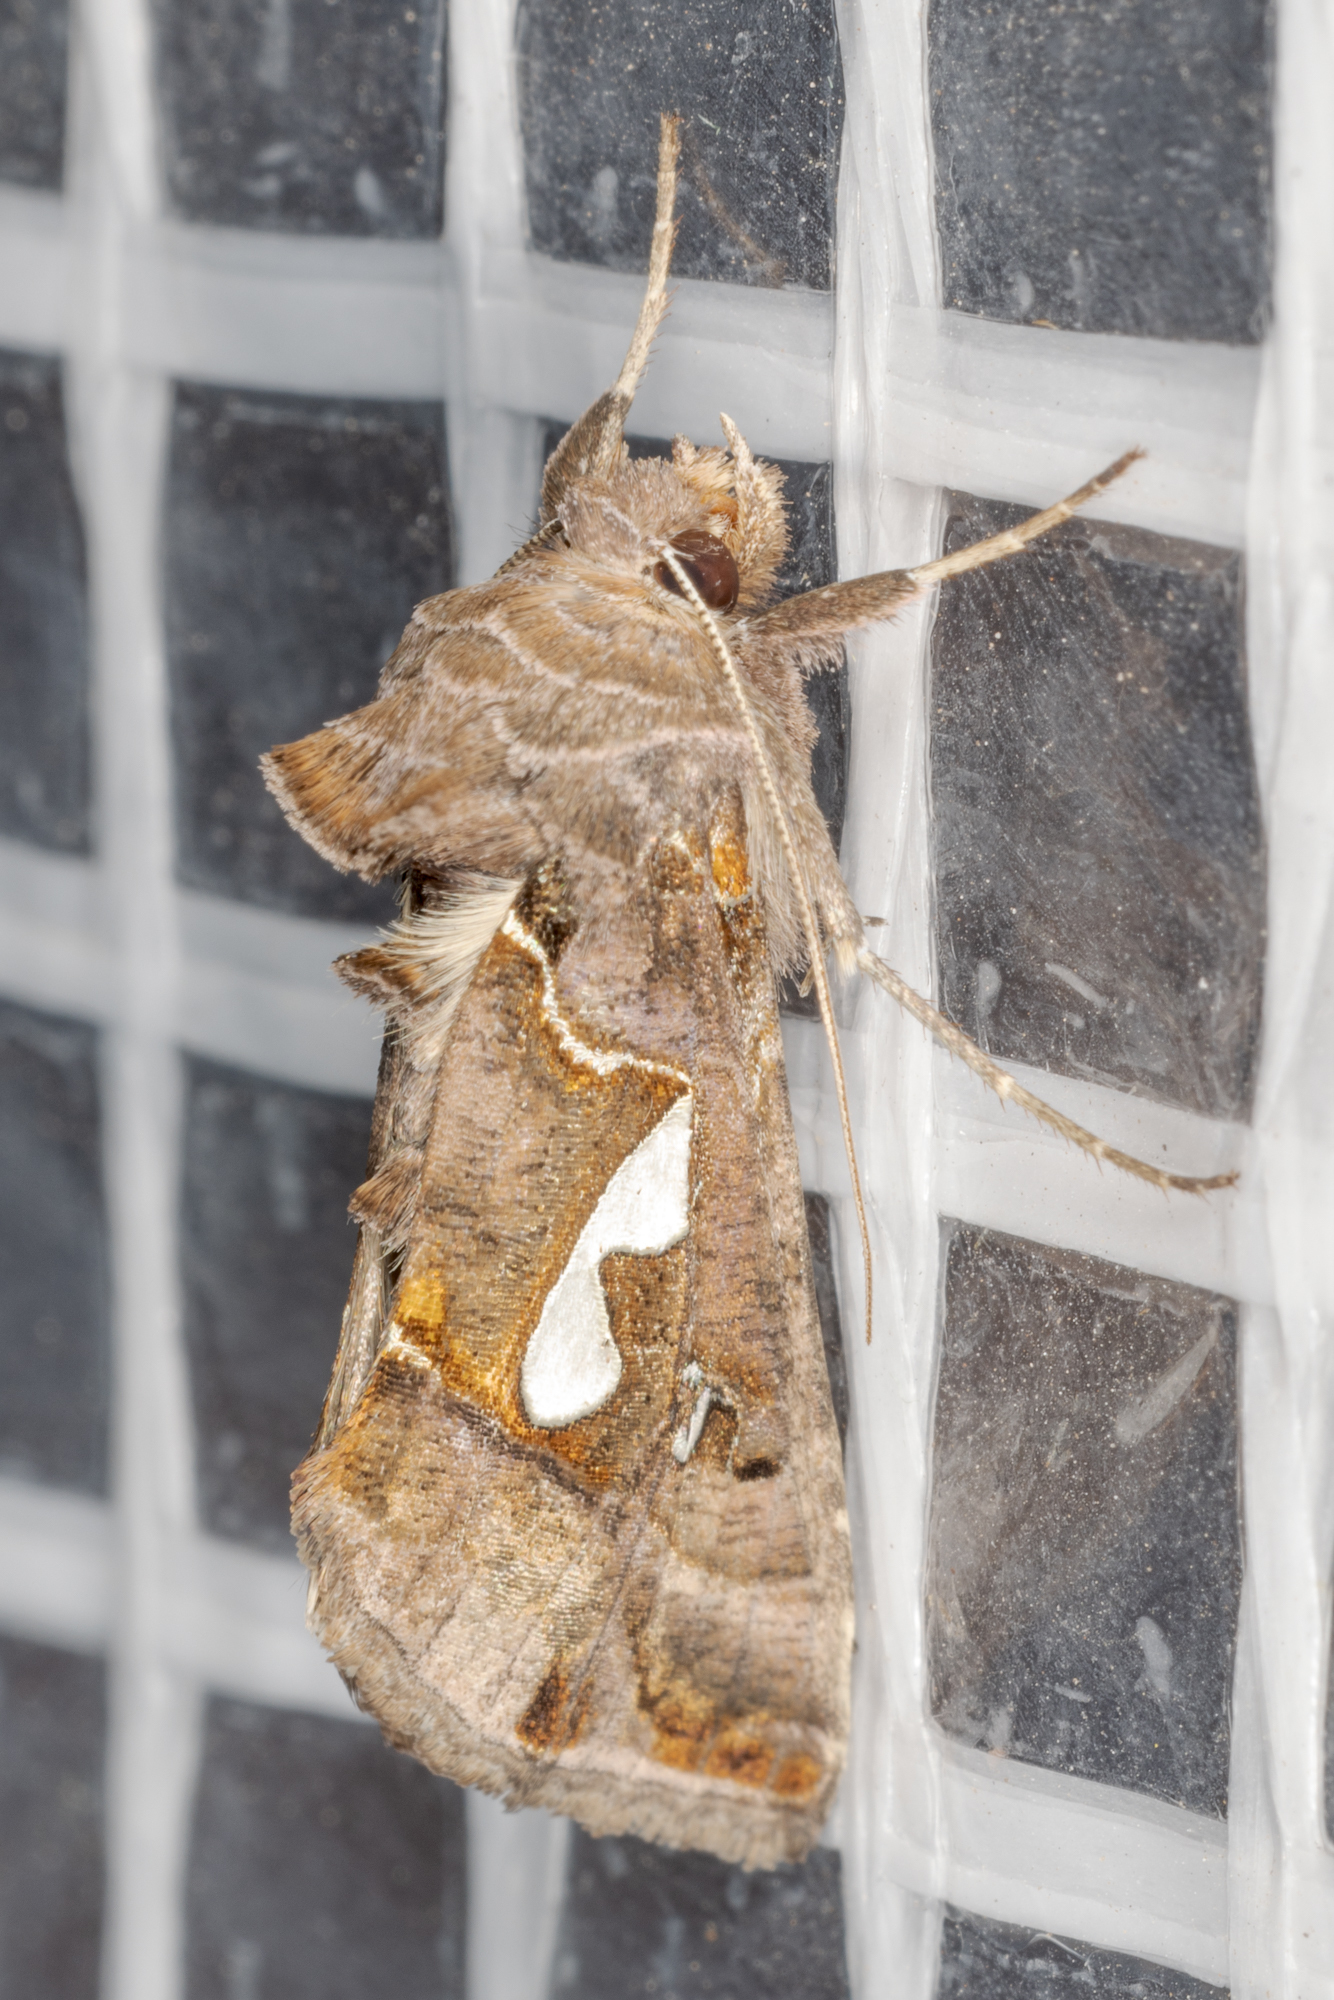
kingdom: Animalia
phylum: Arthropoda
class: Insecta
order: Lepidoptera
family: Noctuidae
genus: Megalographa
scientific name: Megalographa biloba
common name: Cutworm
